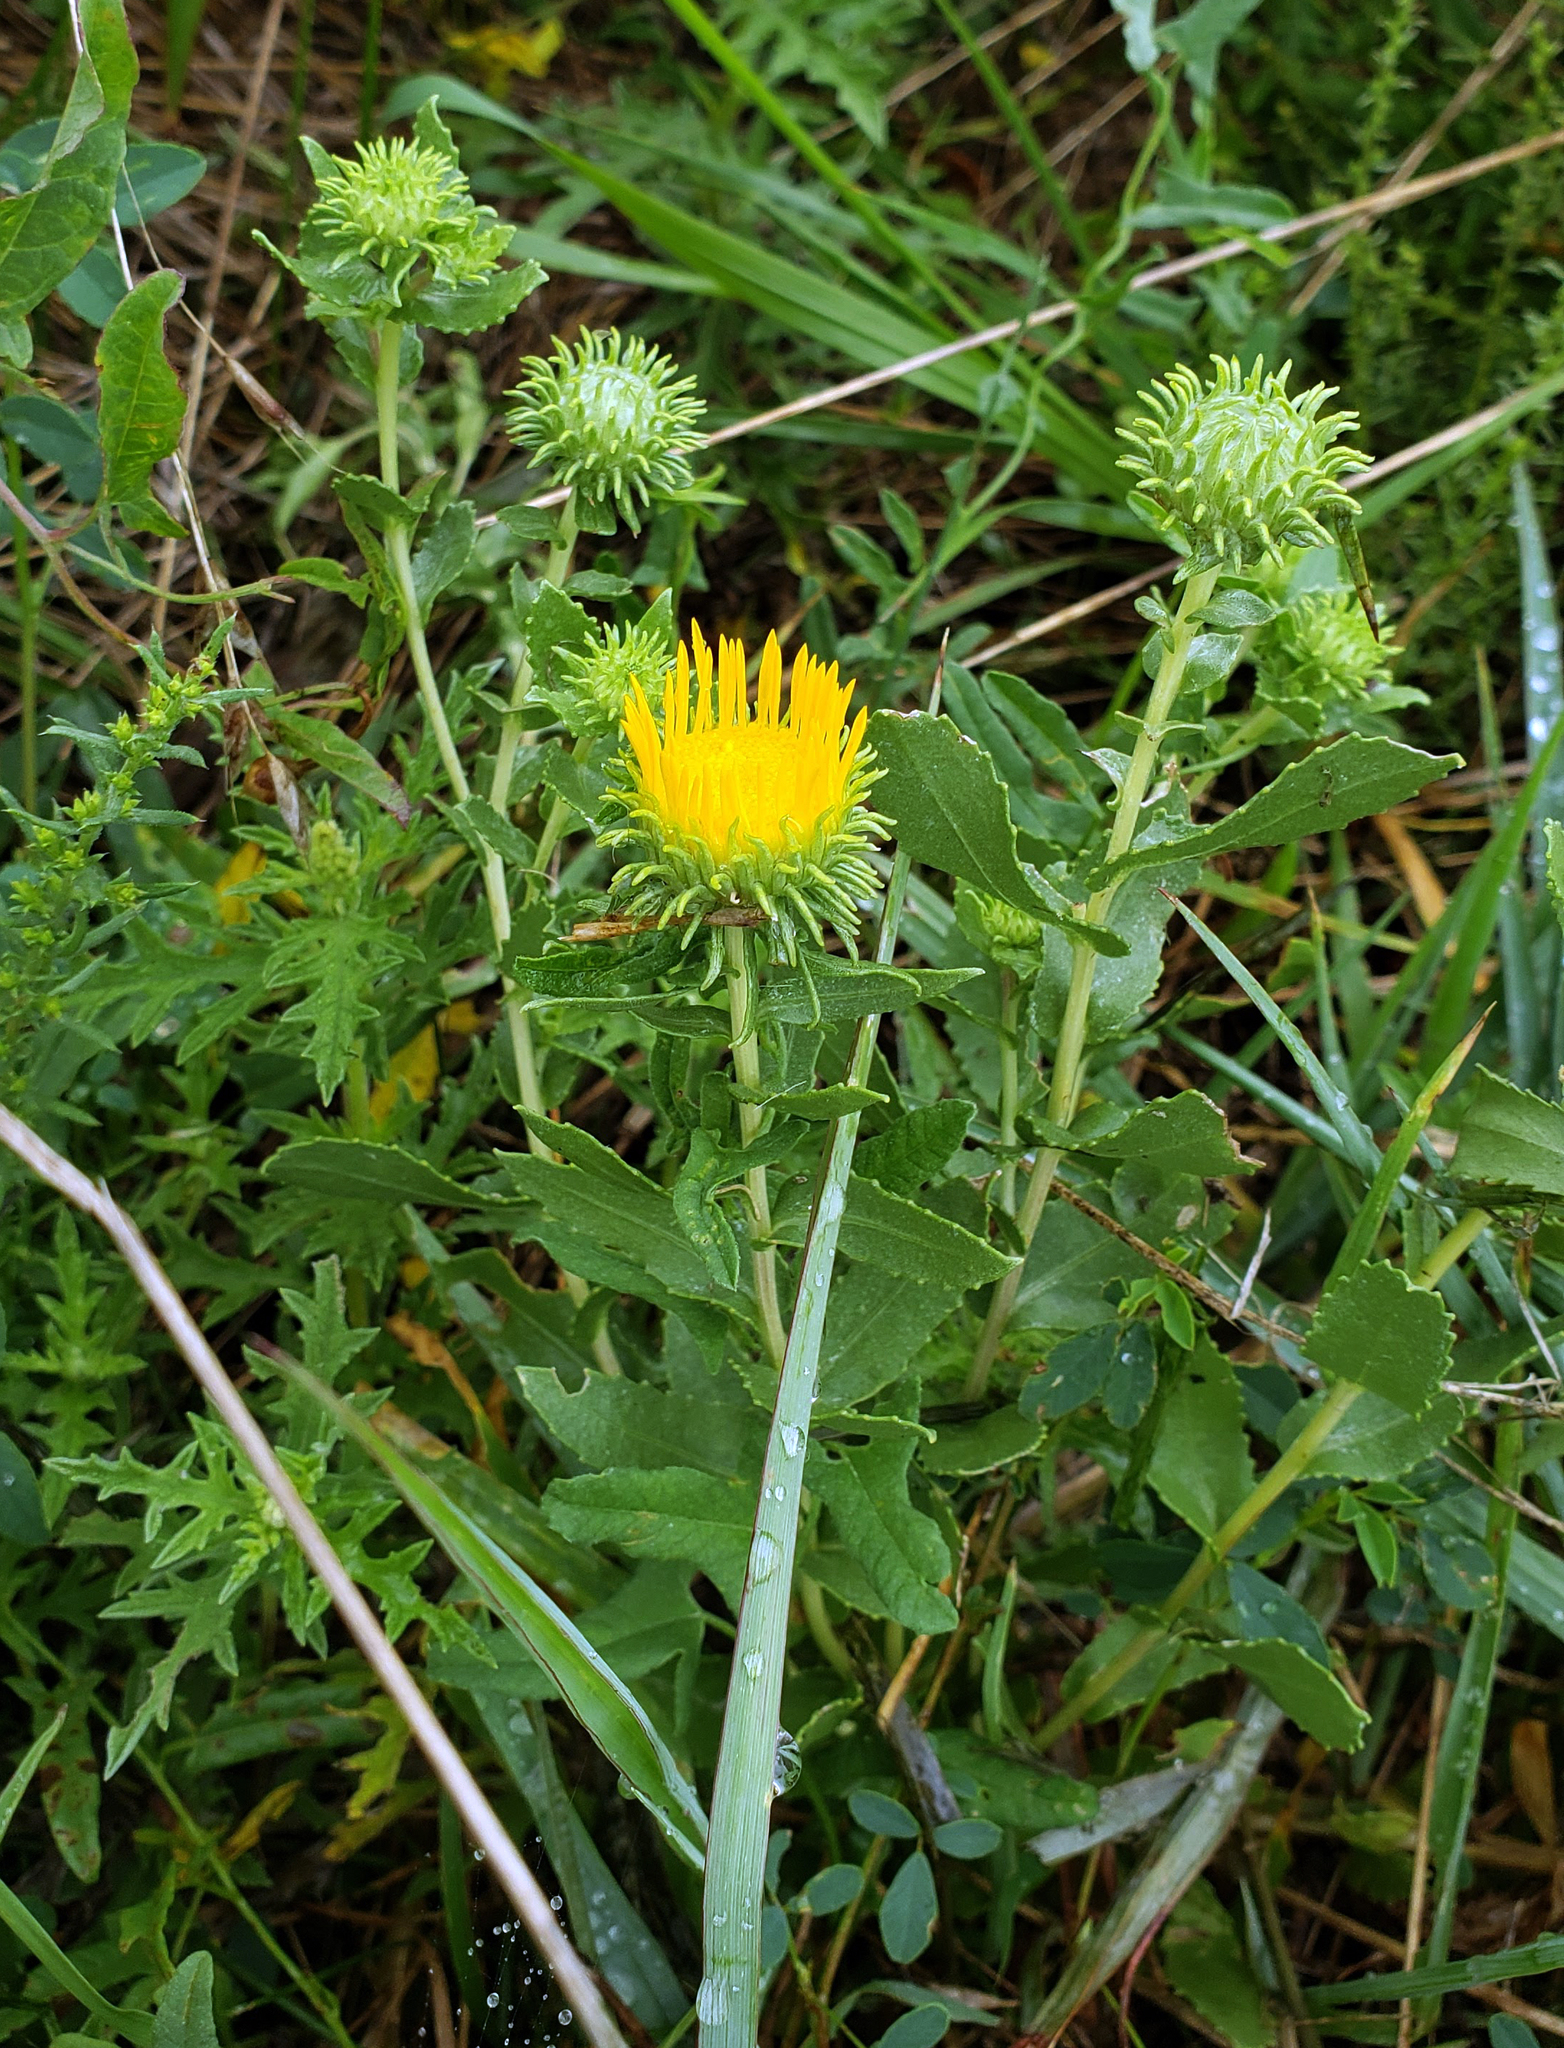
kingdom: Plantae
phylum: Tracheophyta
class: Magnoliopsida
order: Asterales
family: Asteraceae
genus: Grindelia
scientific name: Grindelia squarrosa
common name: Curly-cup gumweed
